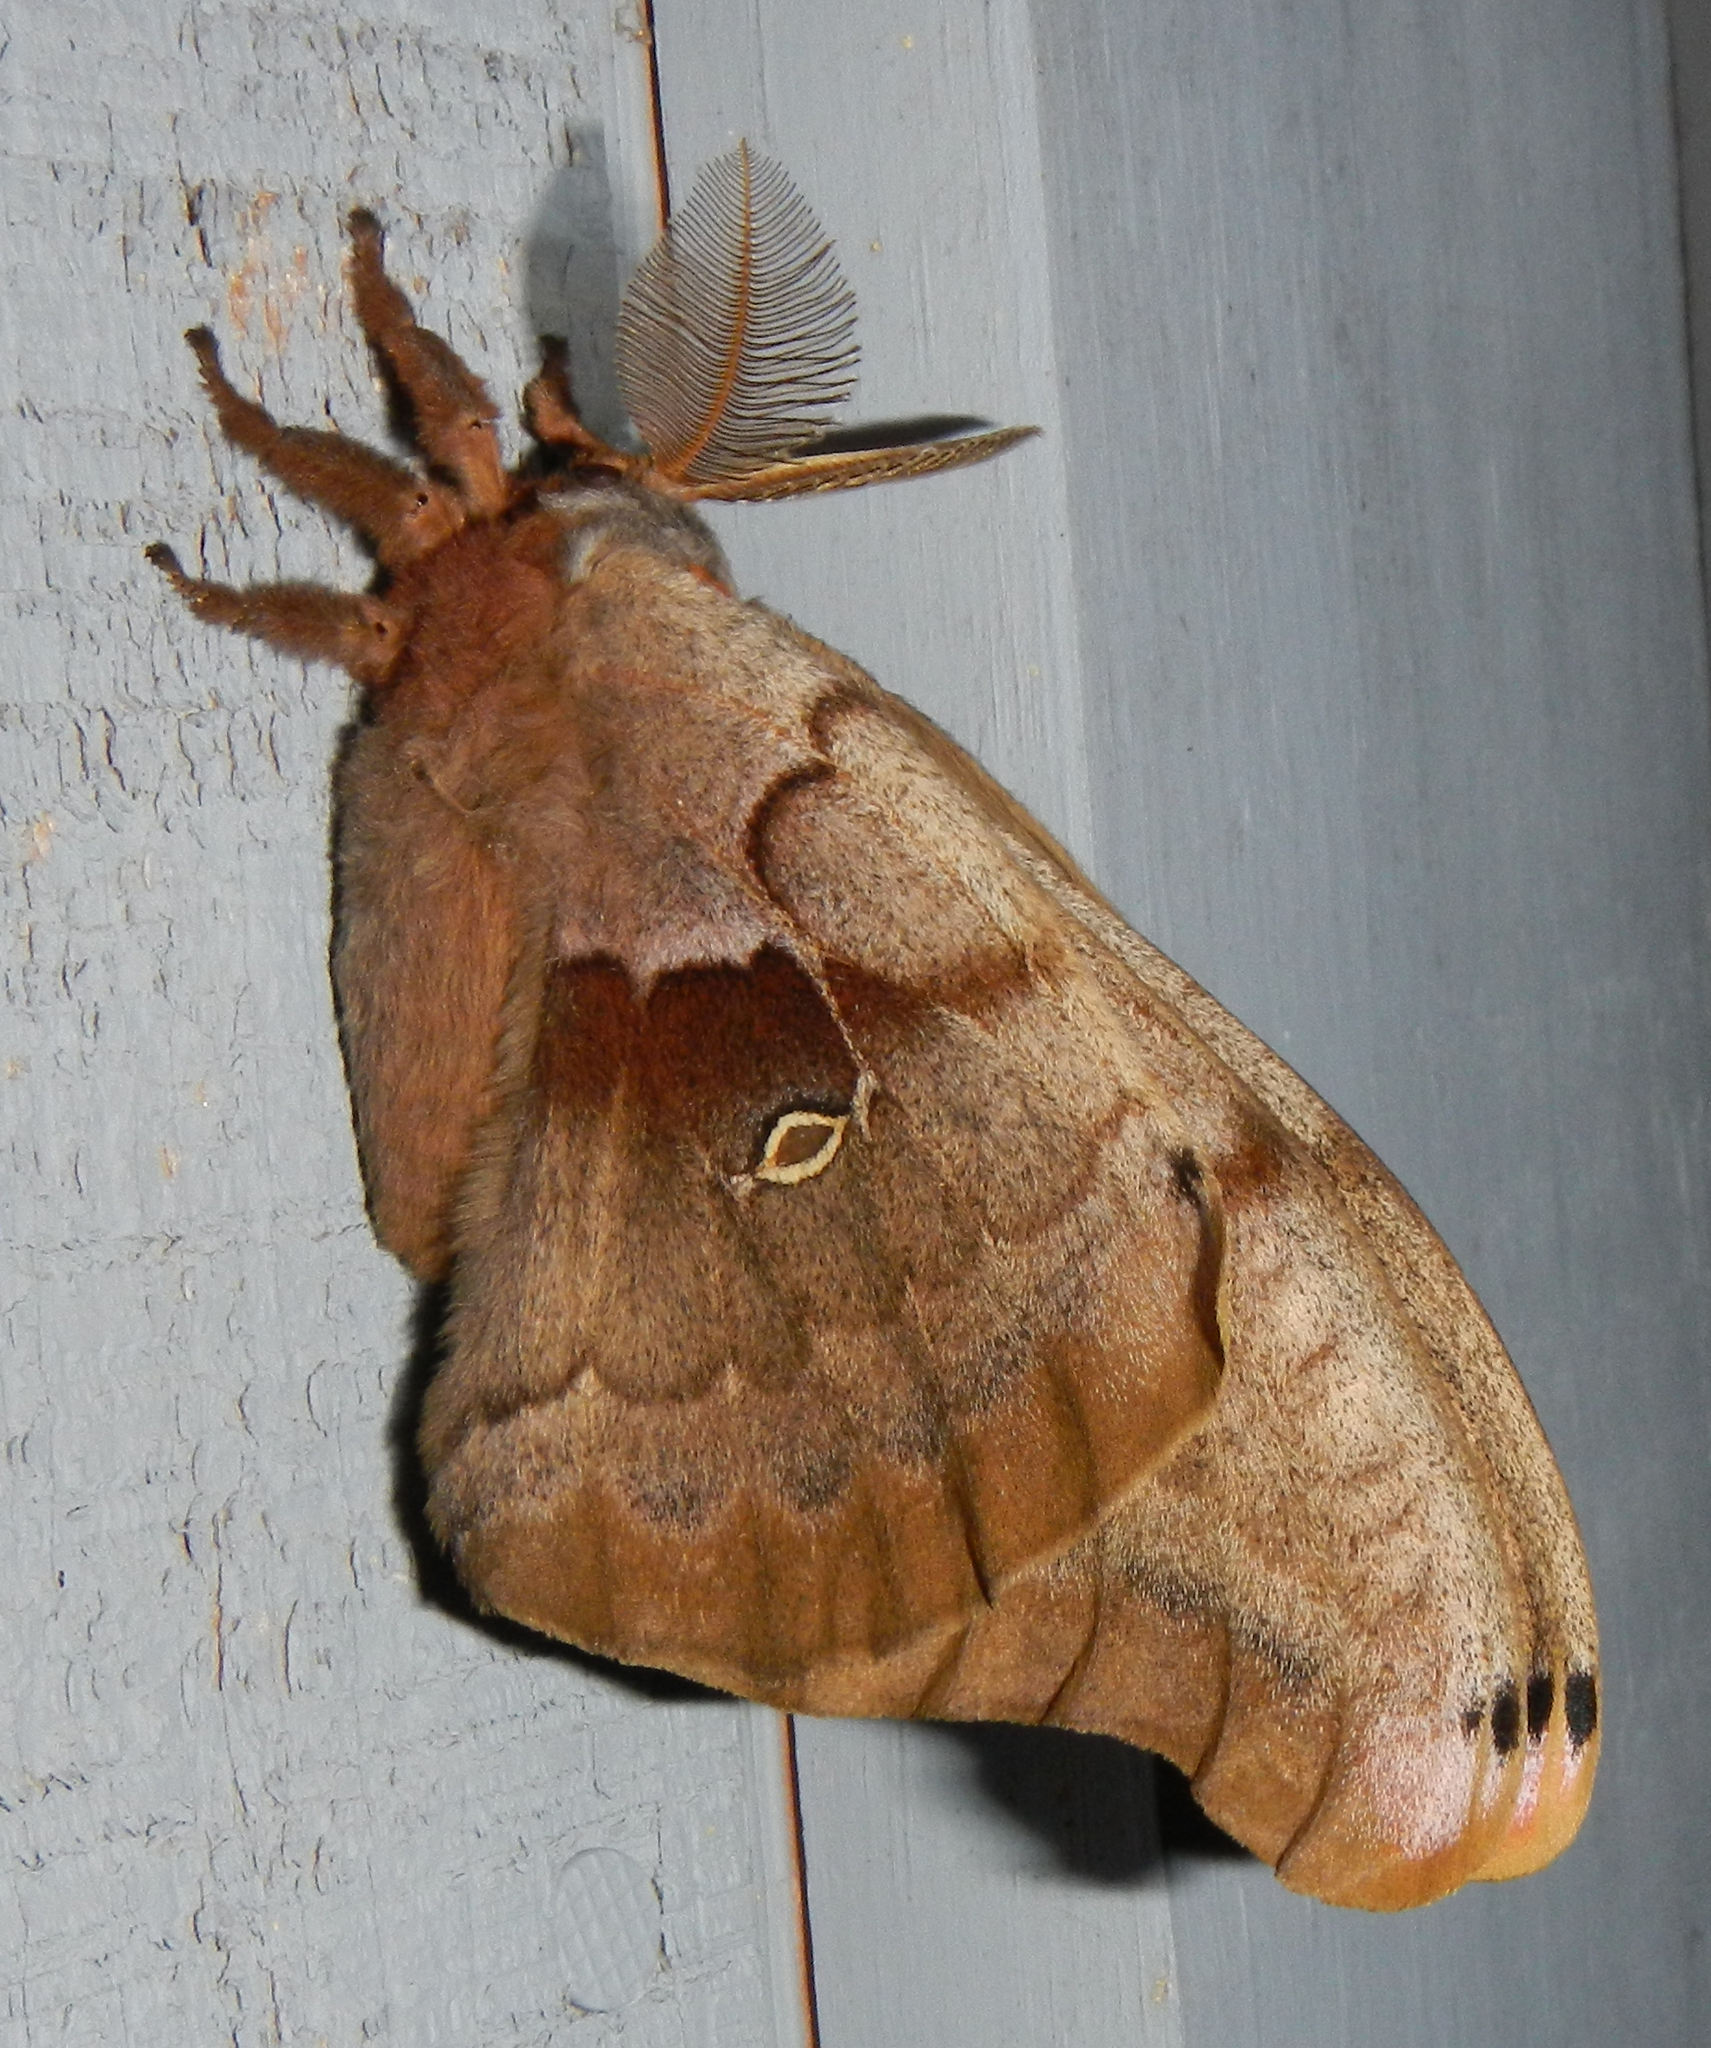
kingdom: Animalia
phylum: Arthropoda
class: Insecta
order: Lepidoptera
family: Saturniidae
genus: Antheraea
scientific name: Antheraea polyphemus
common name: Polyphemus moth
